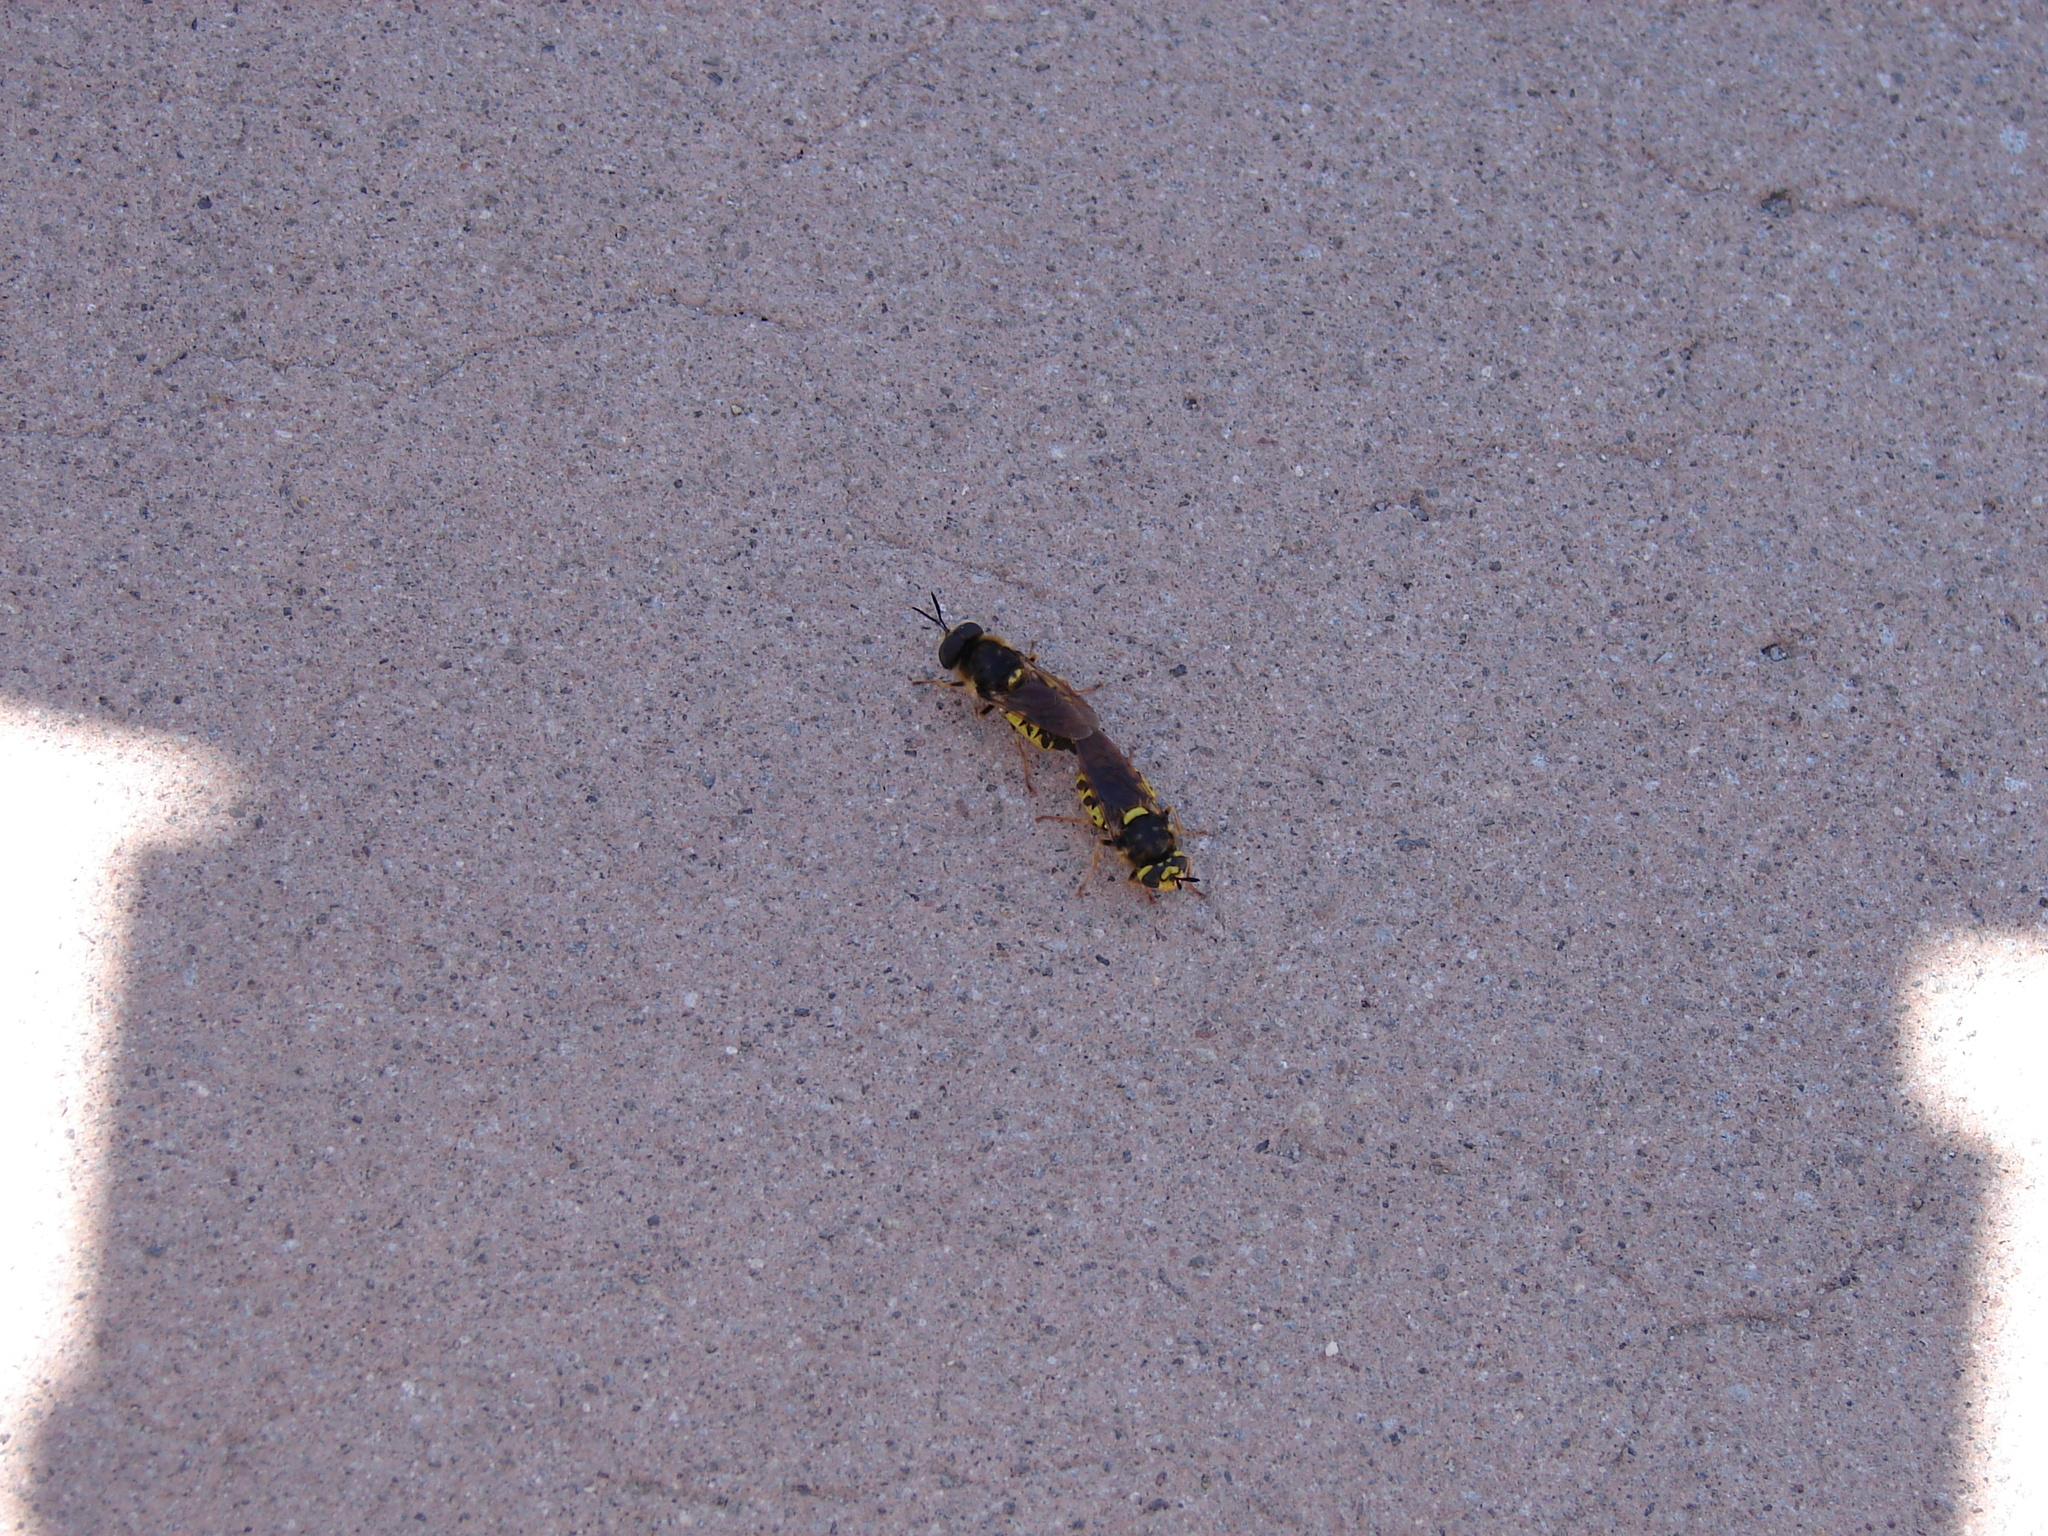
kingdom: Animalia
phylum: Arthropoda
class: Insecta
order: Diptera
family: Stratiomyidae
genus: Stratiomys
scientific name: Stratiomys maculosa
